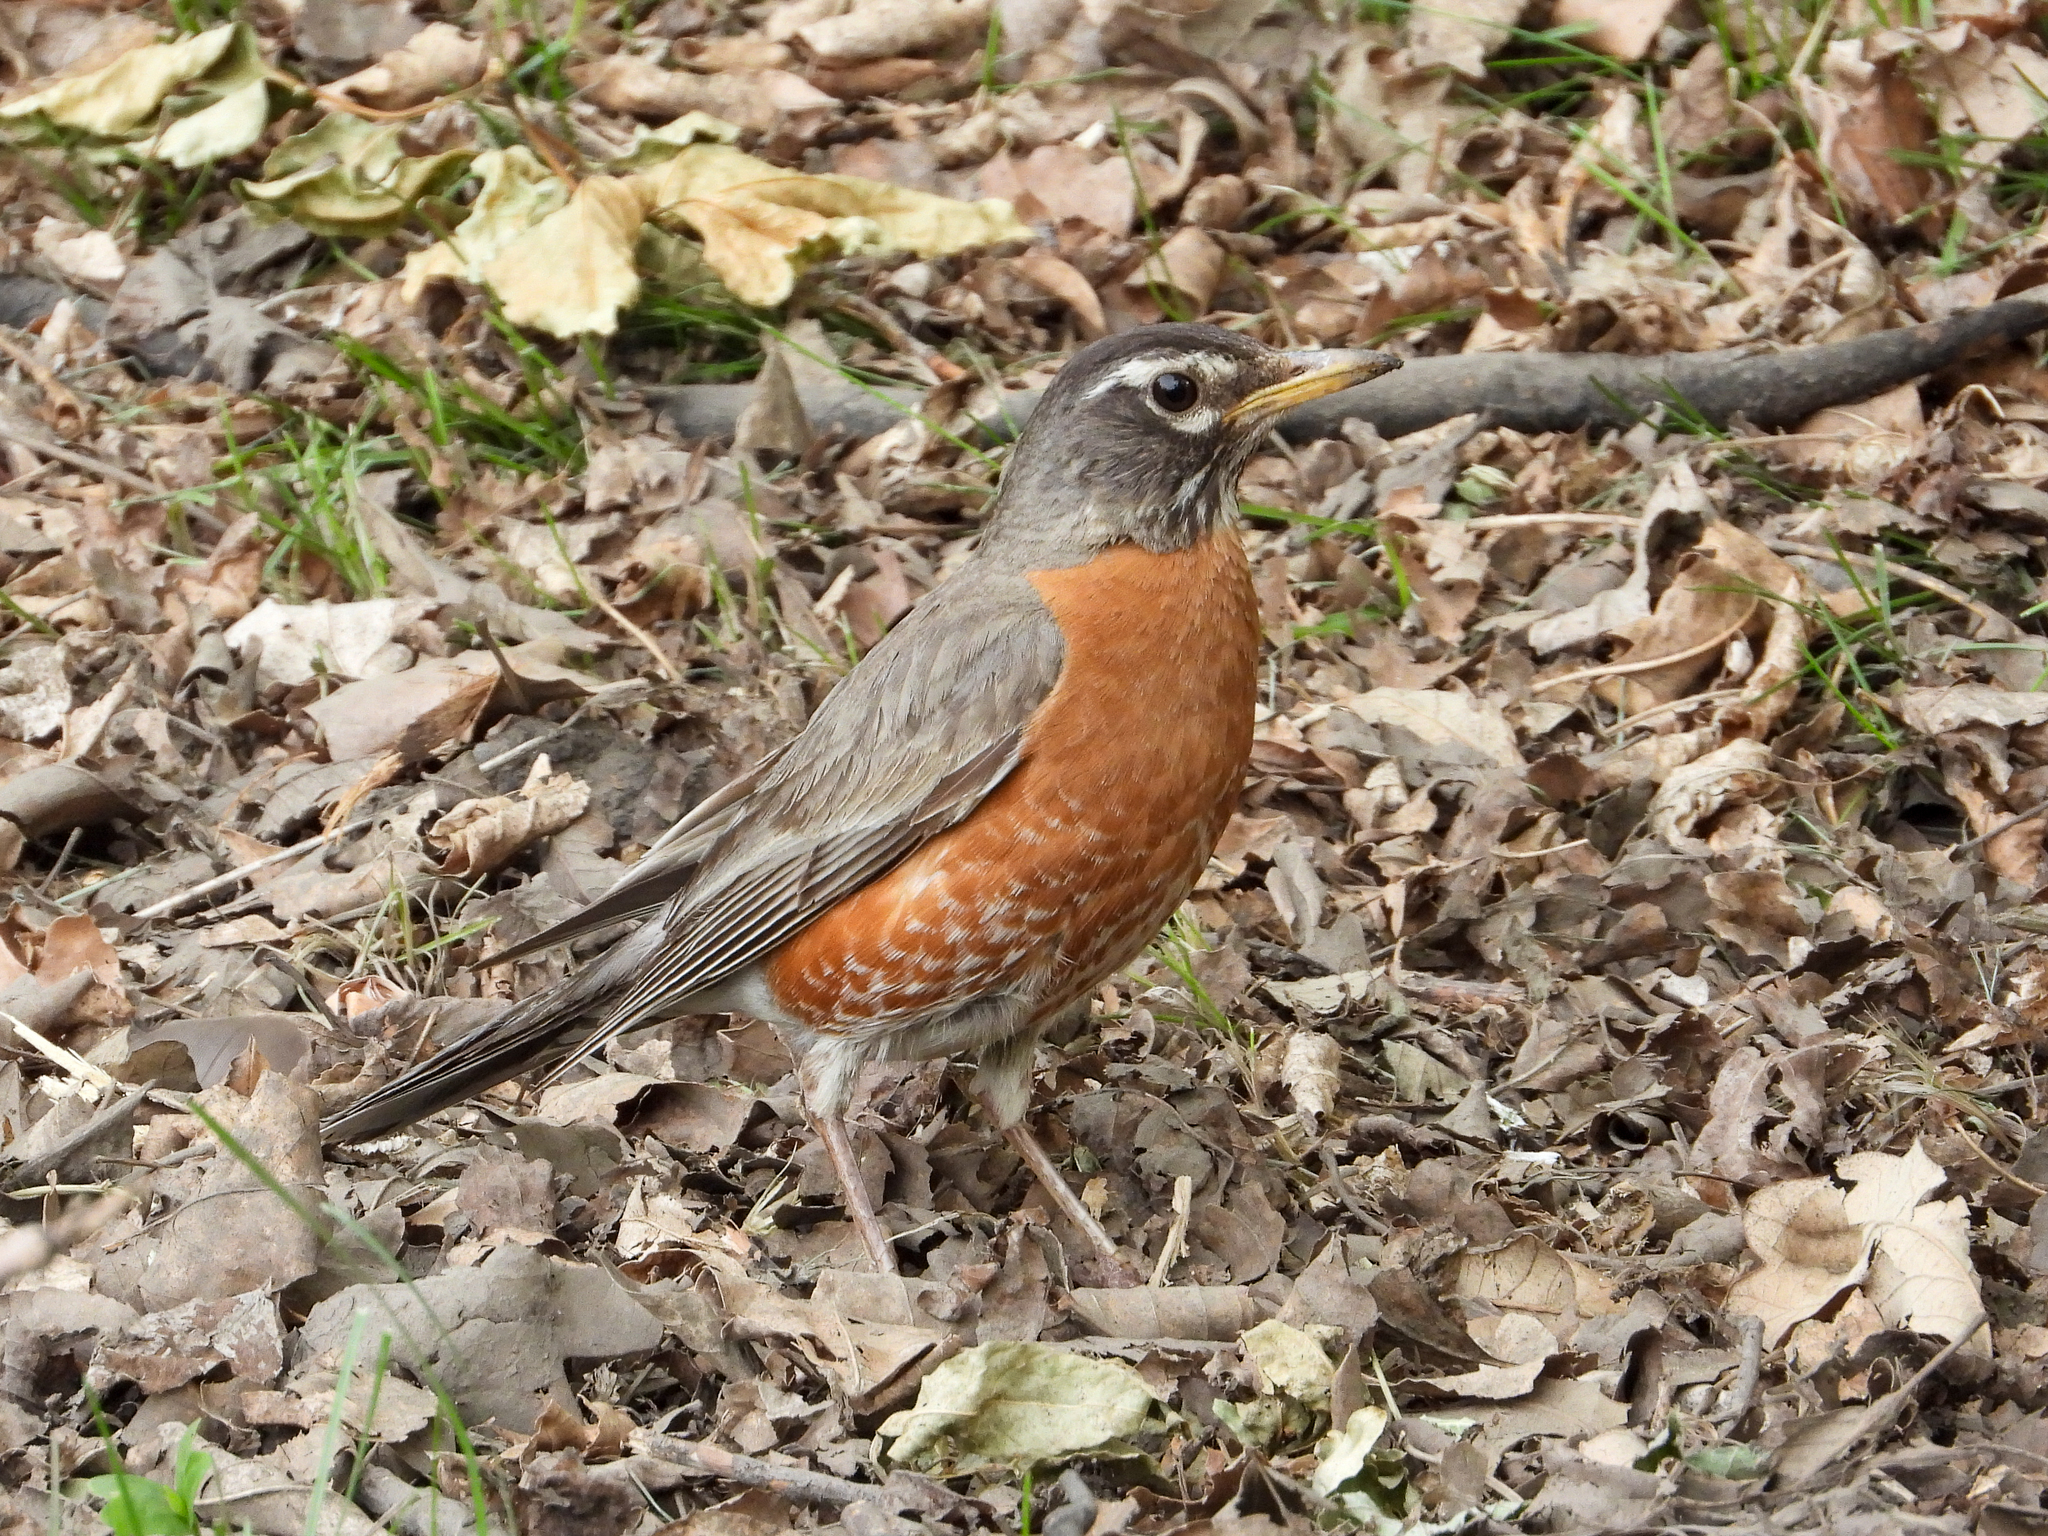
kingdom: Animalia
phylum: Chordata
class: Aves
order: Passeriformes
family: Turdidae
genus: Turdus
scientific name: Turdus migratorius
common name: American robin
